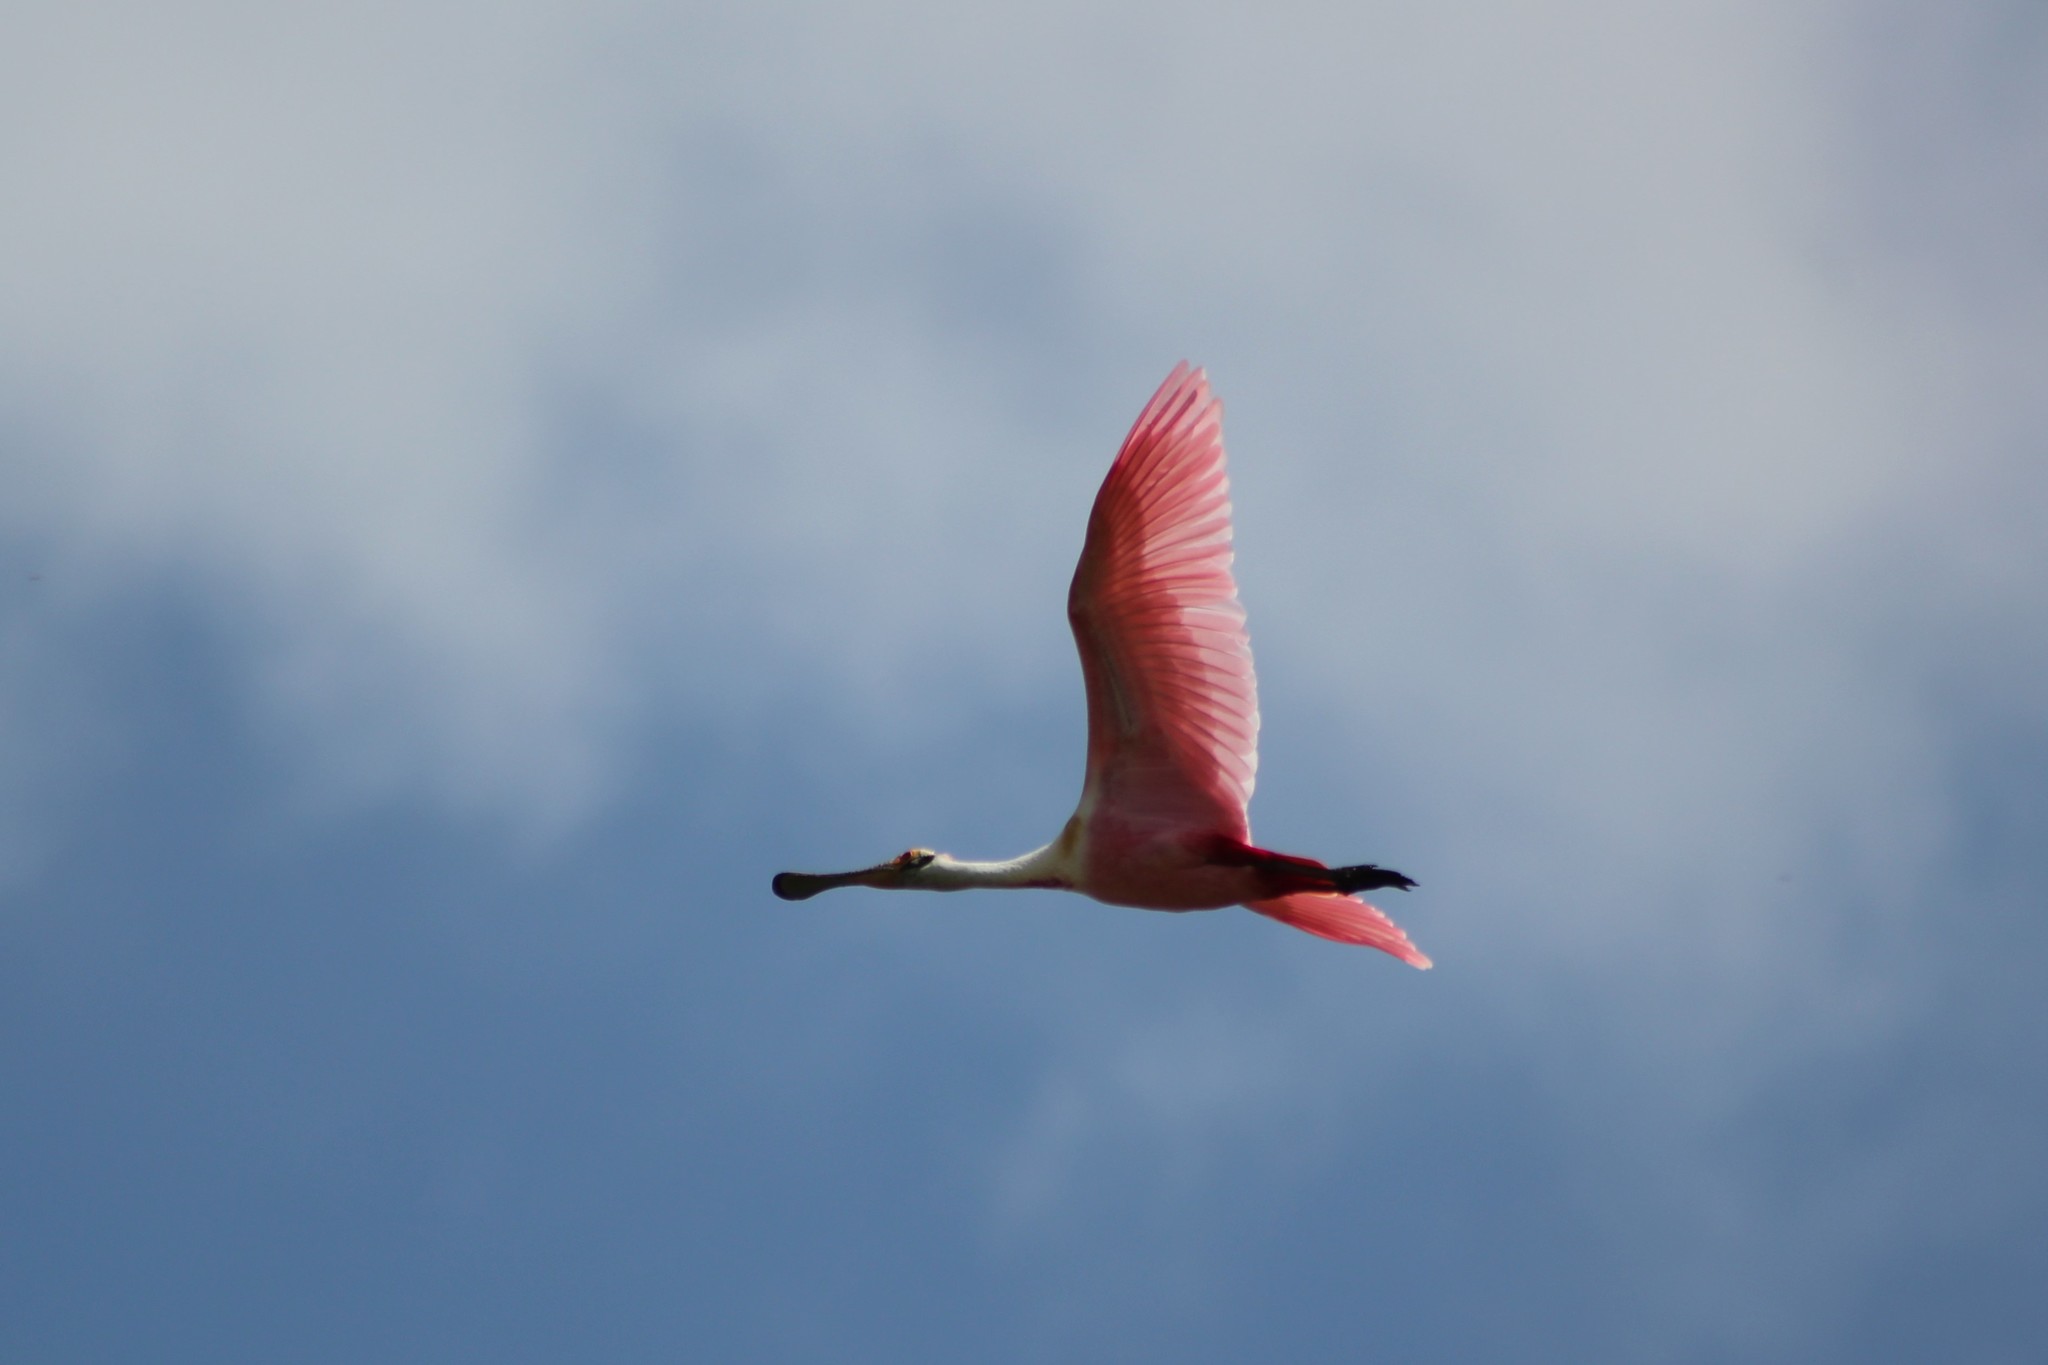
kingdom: Animalia
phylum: Chordata
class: Aves
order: Pelecaniformes
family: Threskiornithidae
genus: Platalea
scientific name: Platalea ajaja
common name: Roseate spoonbill
